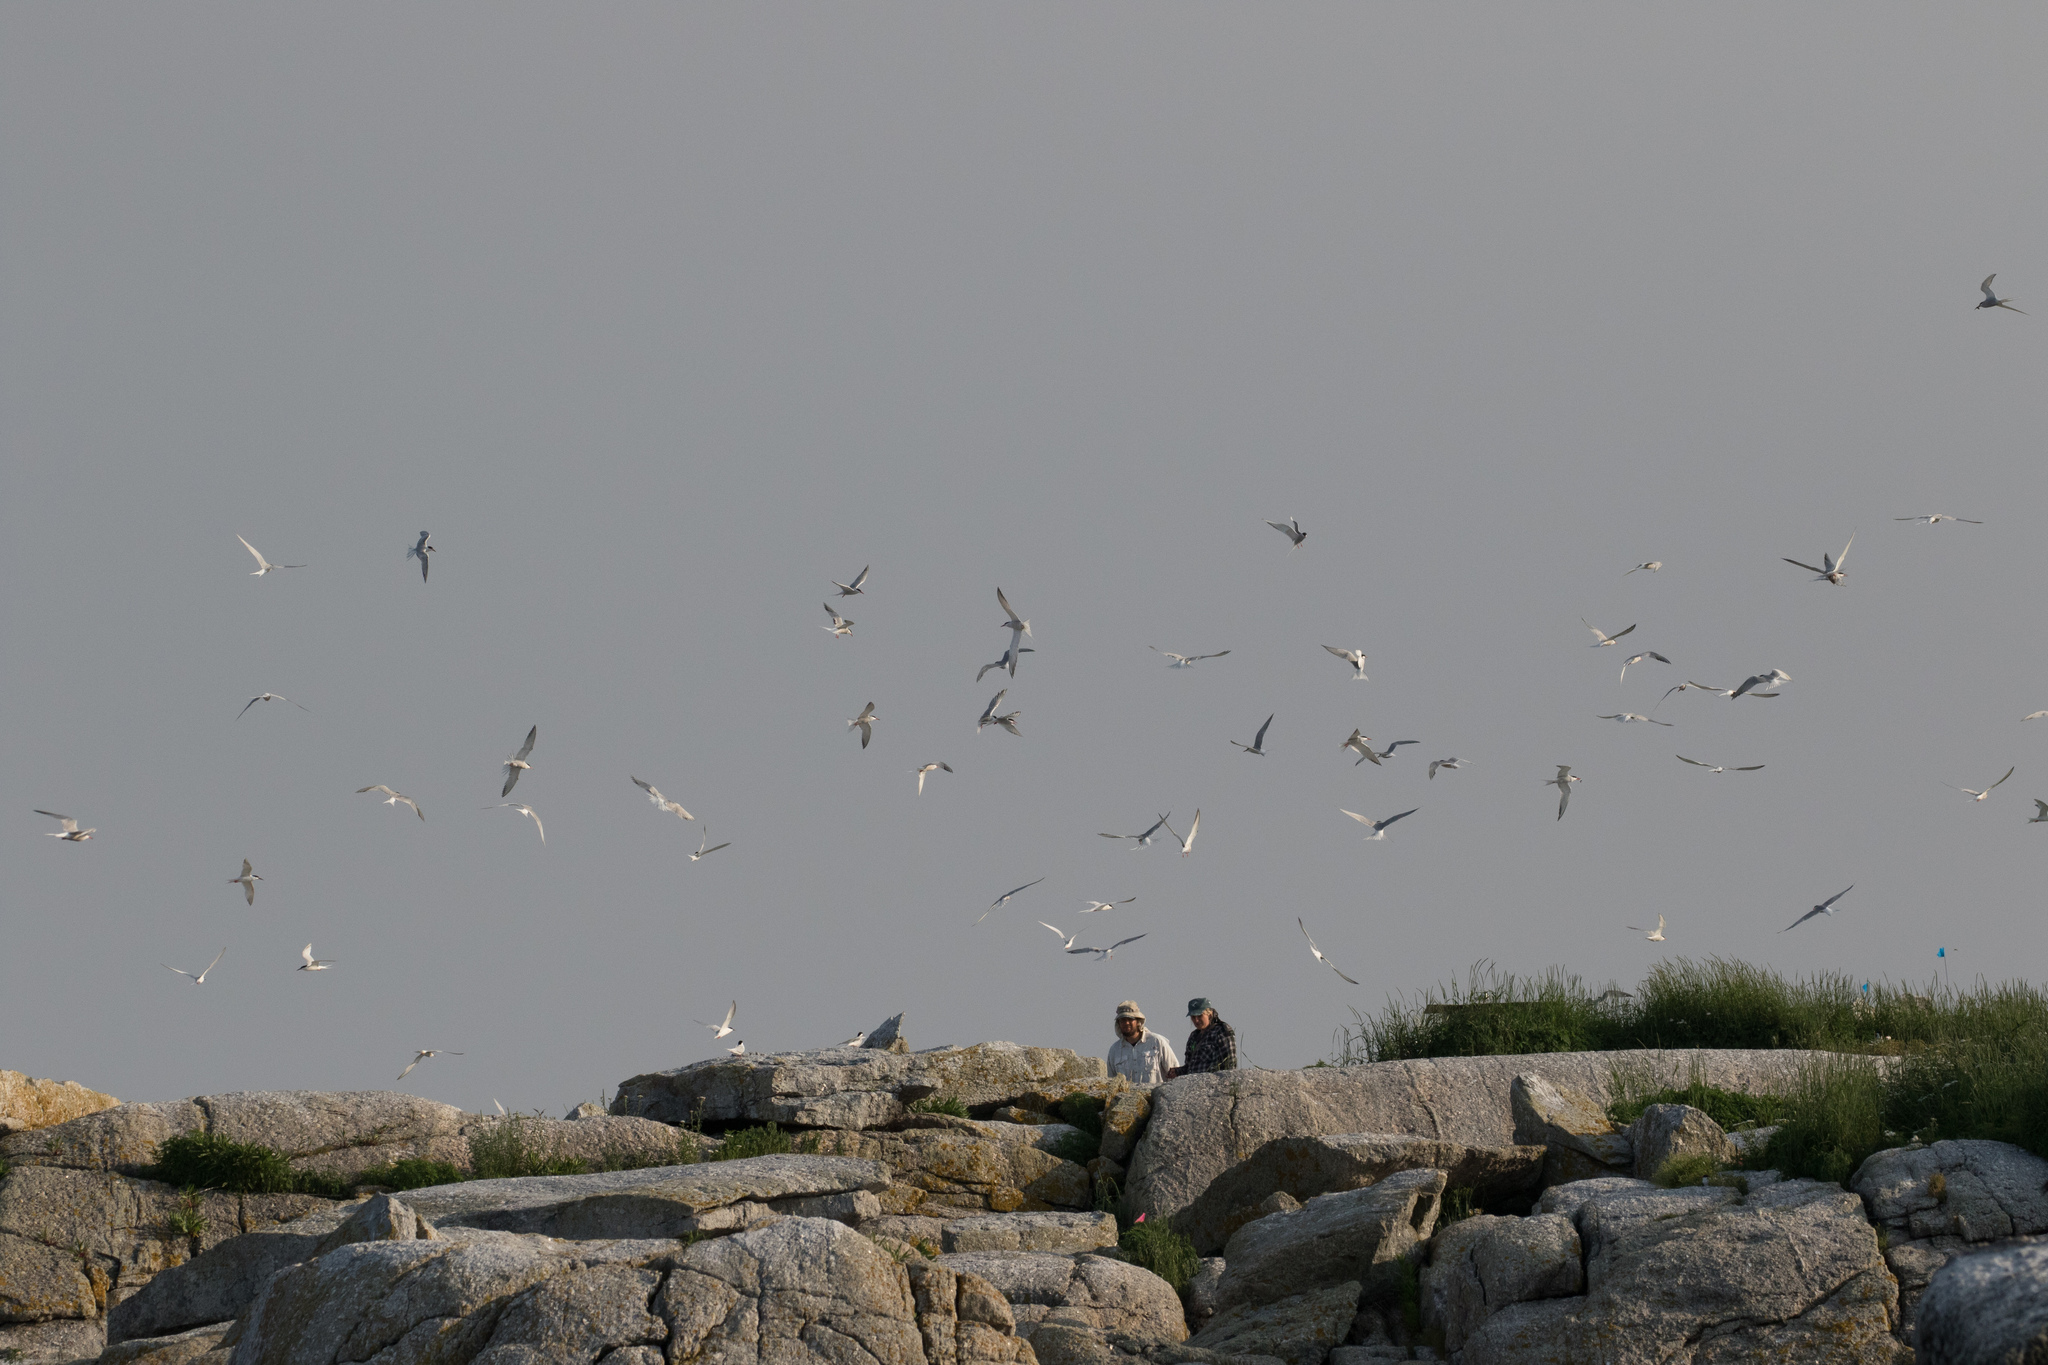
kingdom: Animalia
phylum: Chordata
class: Aves
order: Charadriiformes
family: Laridae
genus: Sterna
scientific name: Sterna hirundo
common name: Common tern
